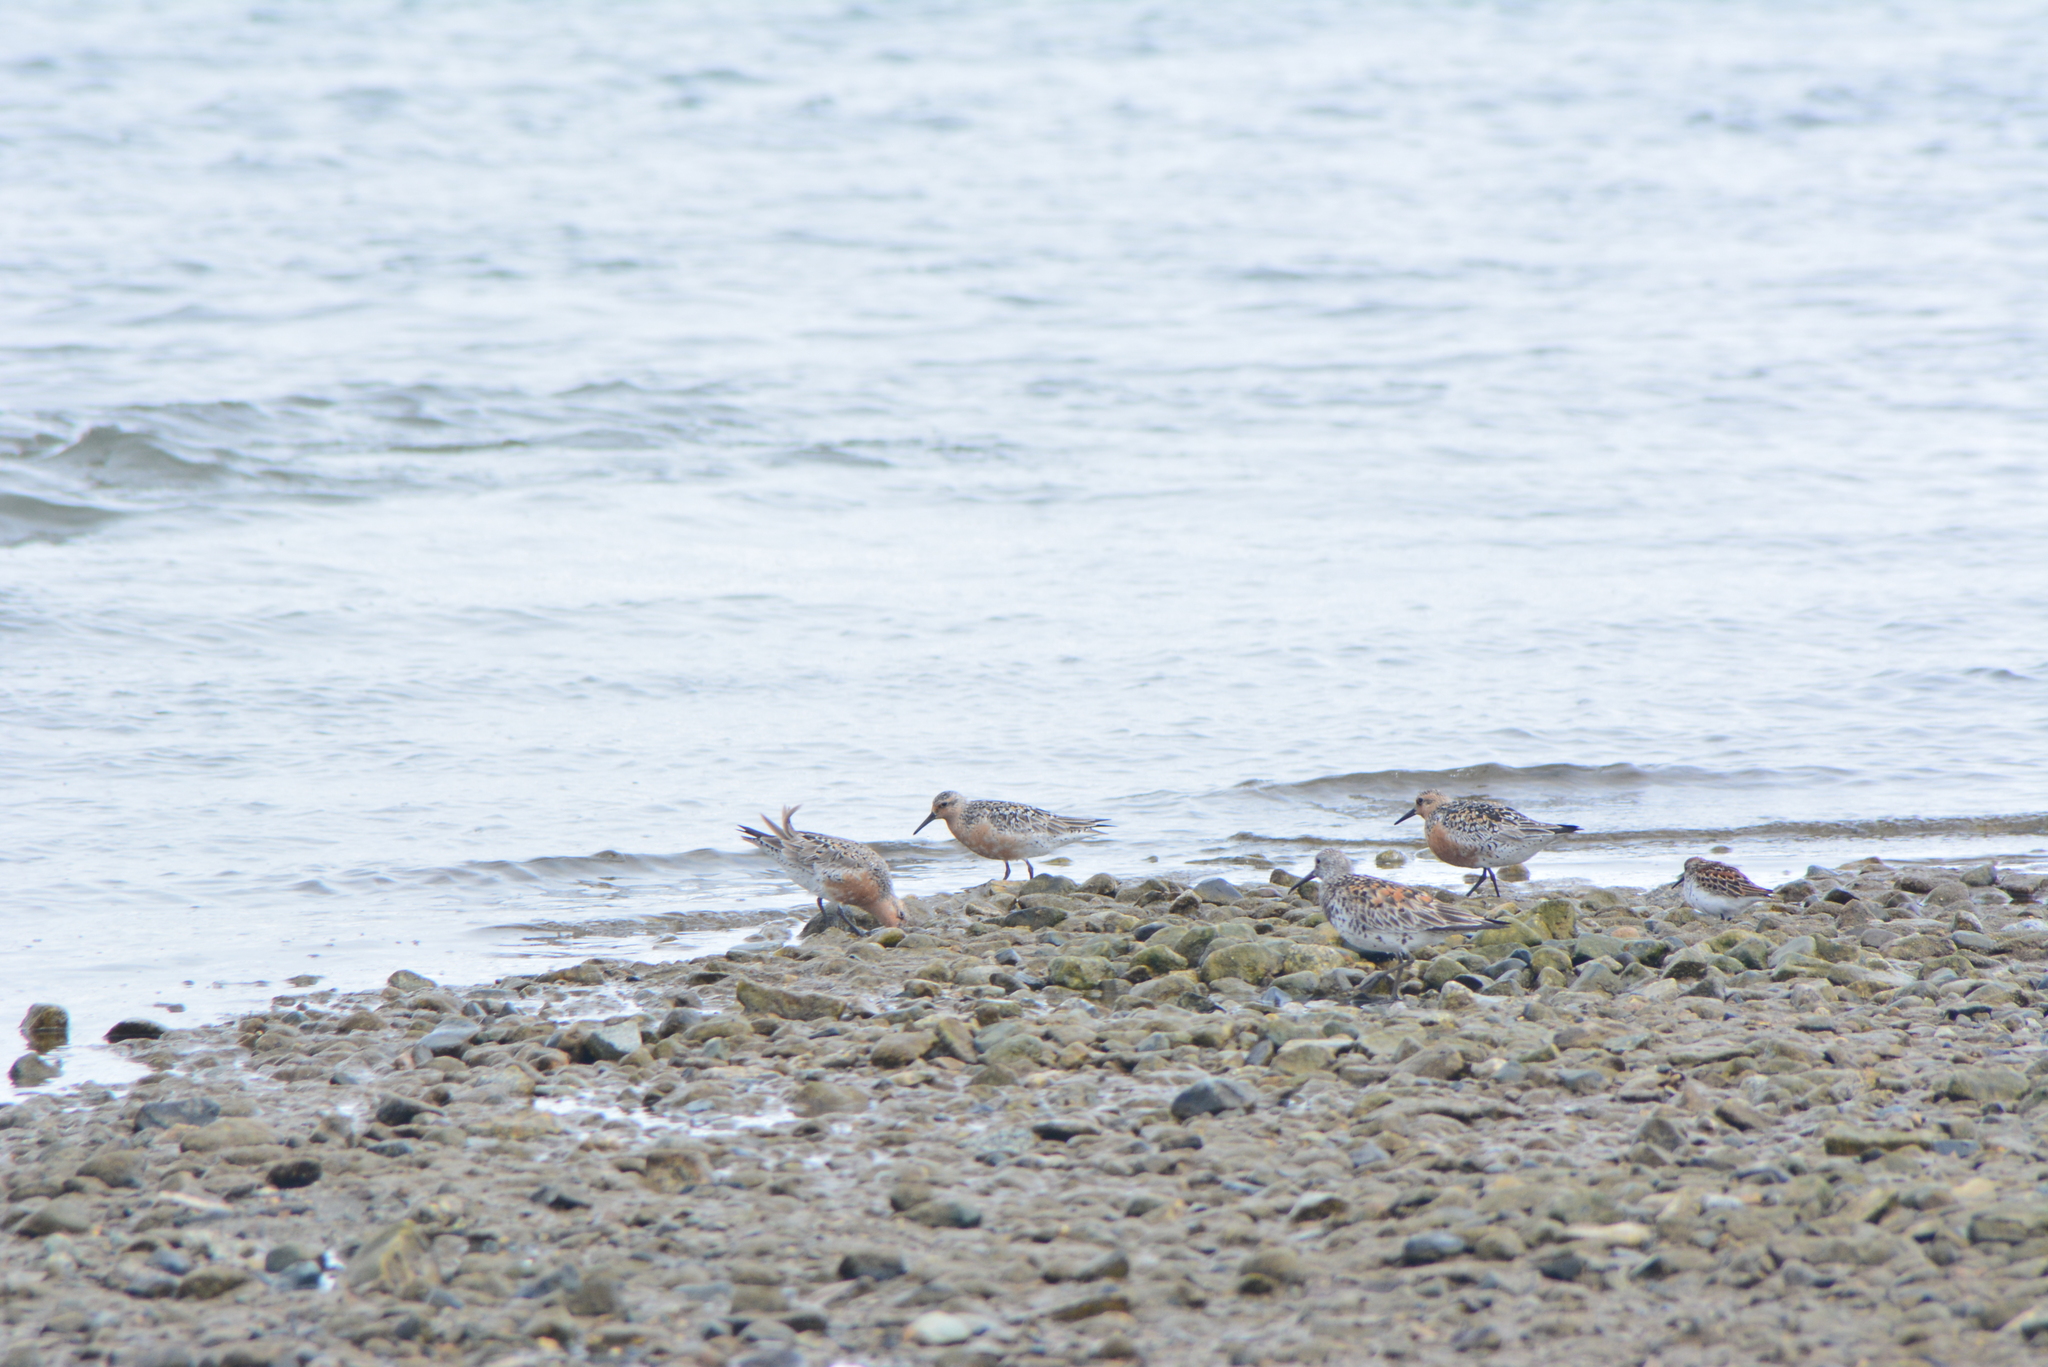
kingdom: Animalia
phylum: Chordata
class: Aves
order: Charadriiformes
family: Scolopacidae
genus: Calidris
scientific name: Calidris canutus
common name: Red knot
